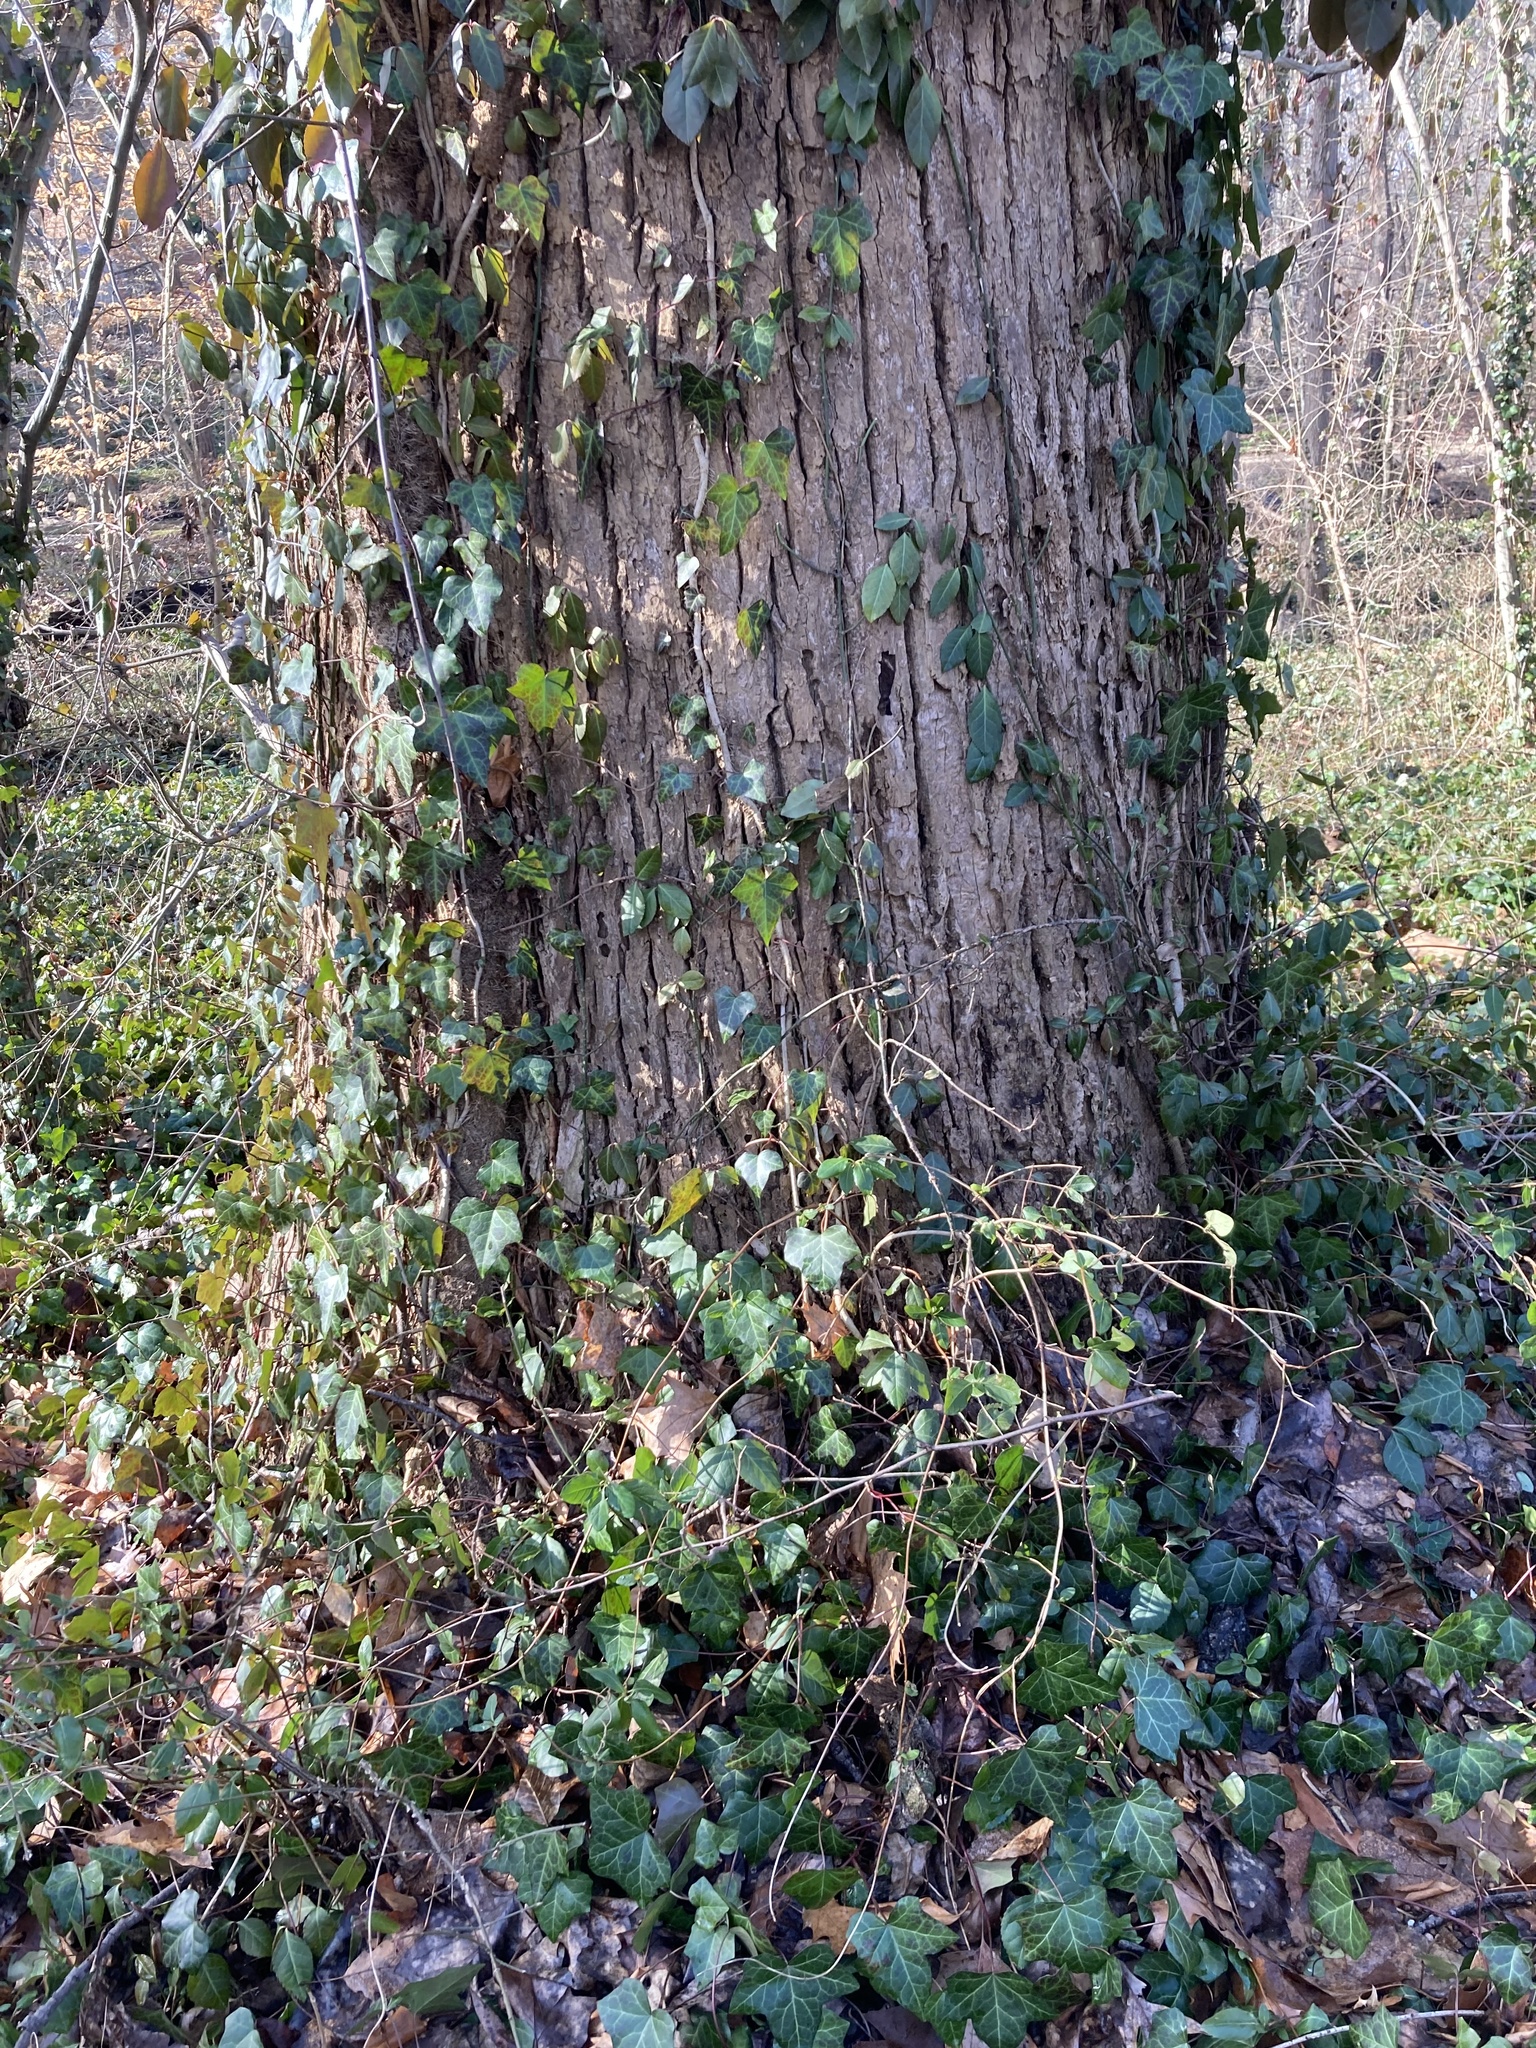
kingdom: Plantae
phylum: Tracheophyta
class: Magnoliopsida
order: Apiales
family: Araliaceae
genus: Hedera
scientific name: Hedera helix
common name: Ivy
